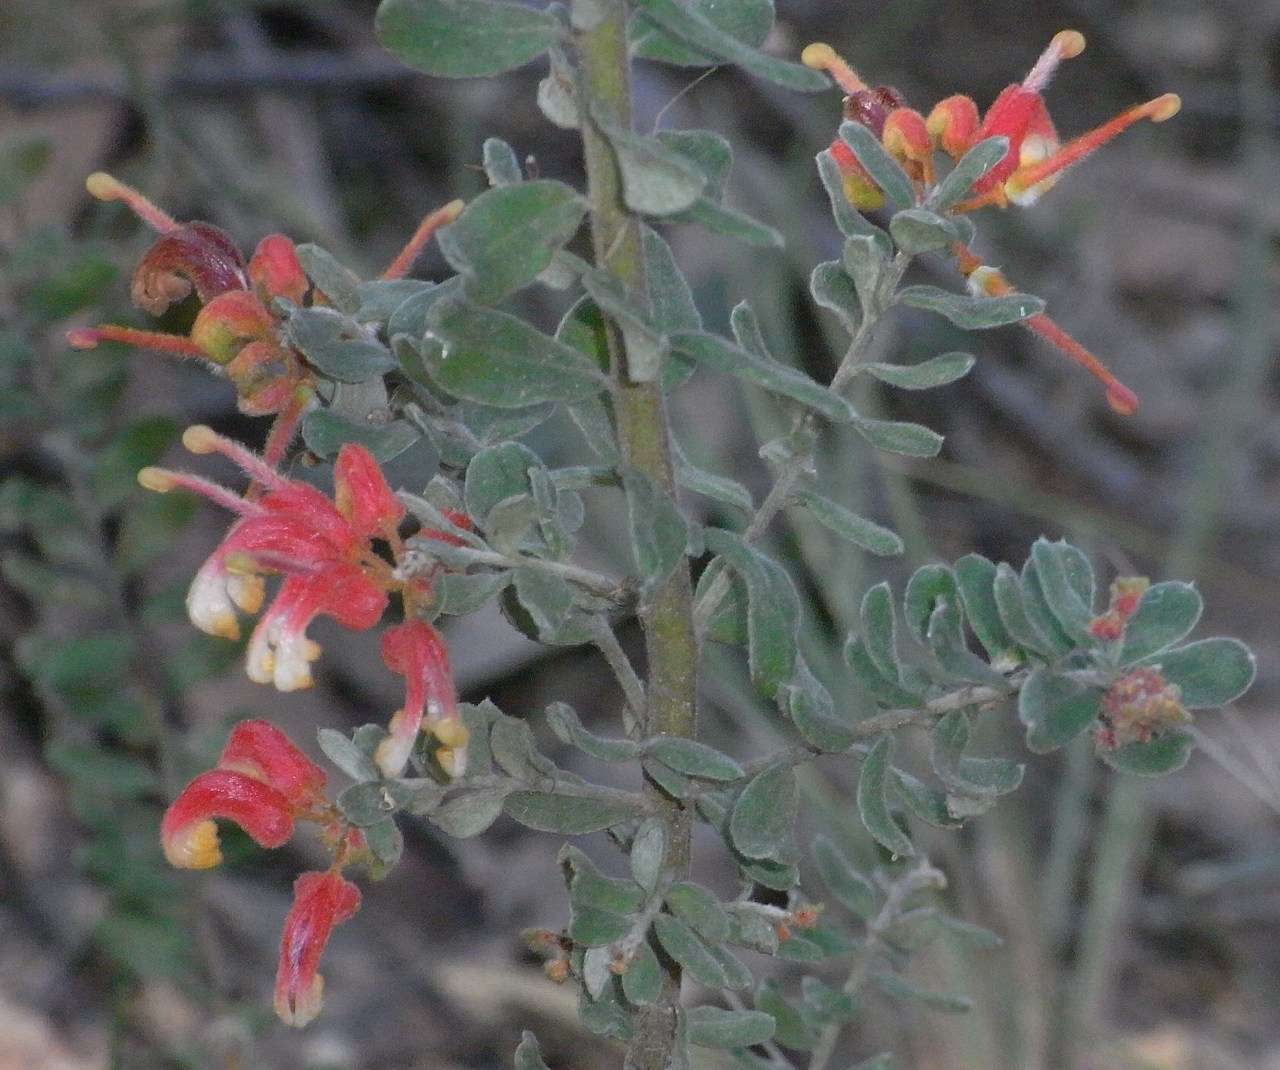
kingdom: Plantae
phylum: Tracheophyta
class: Magnoliopsida
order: Proteales
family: Proteaceae
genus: Grevillea
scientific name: Grevillea alpina
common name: Catclaws grevillea
